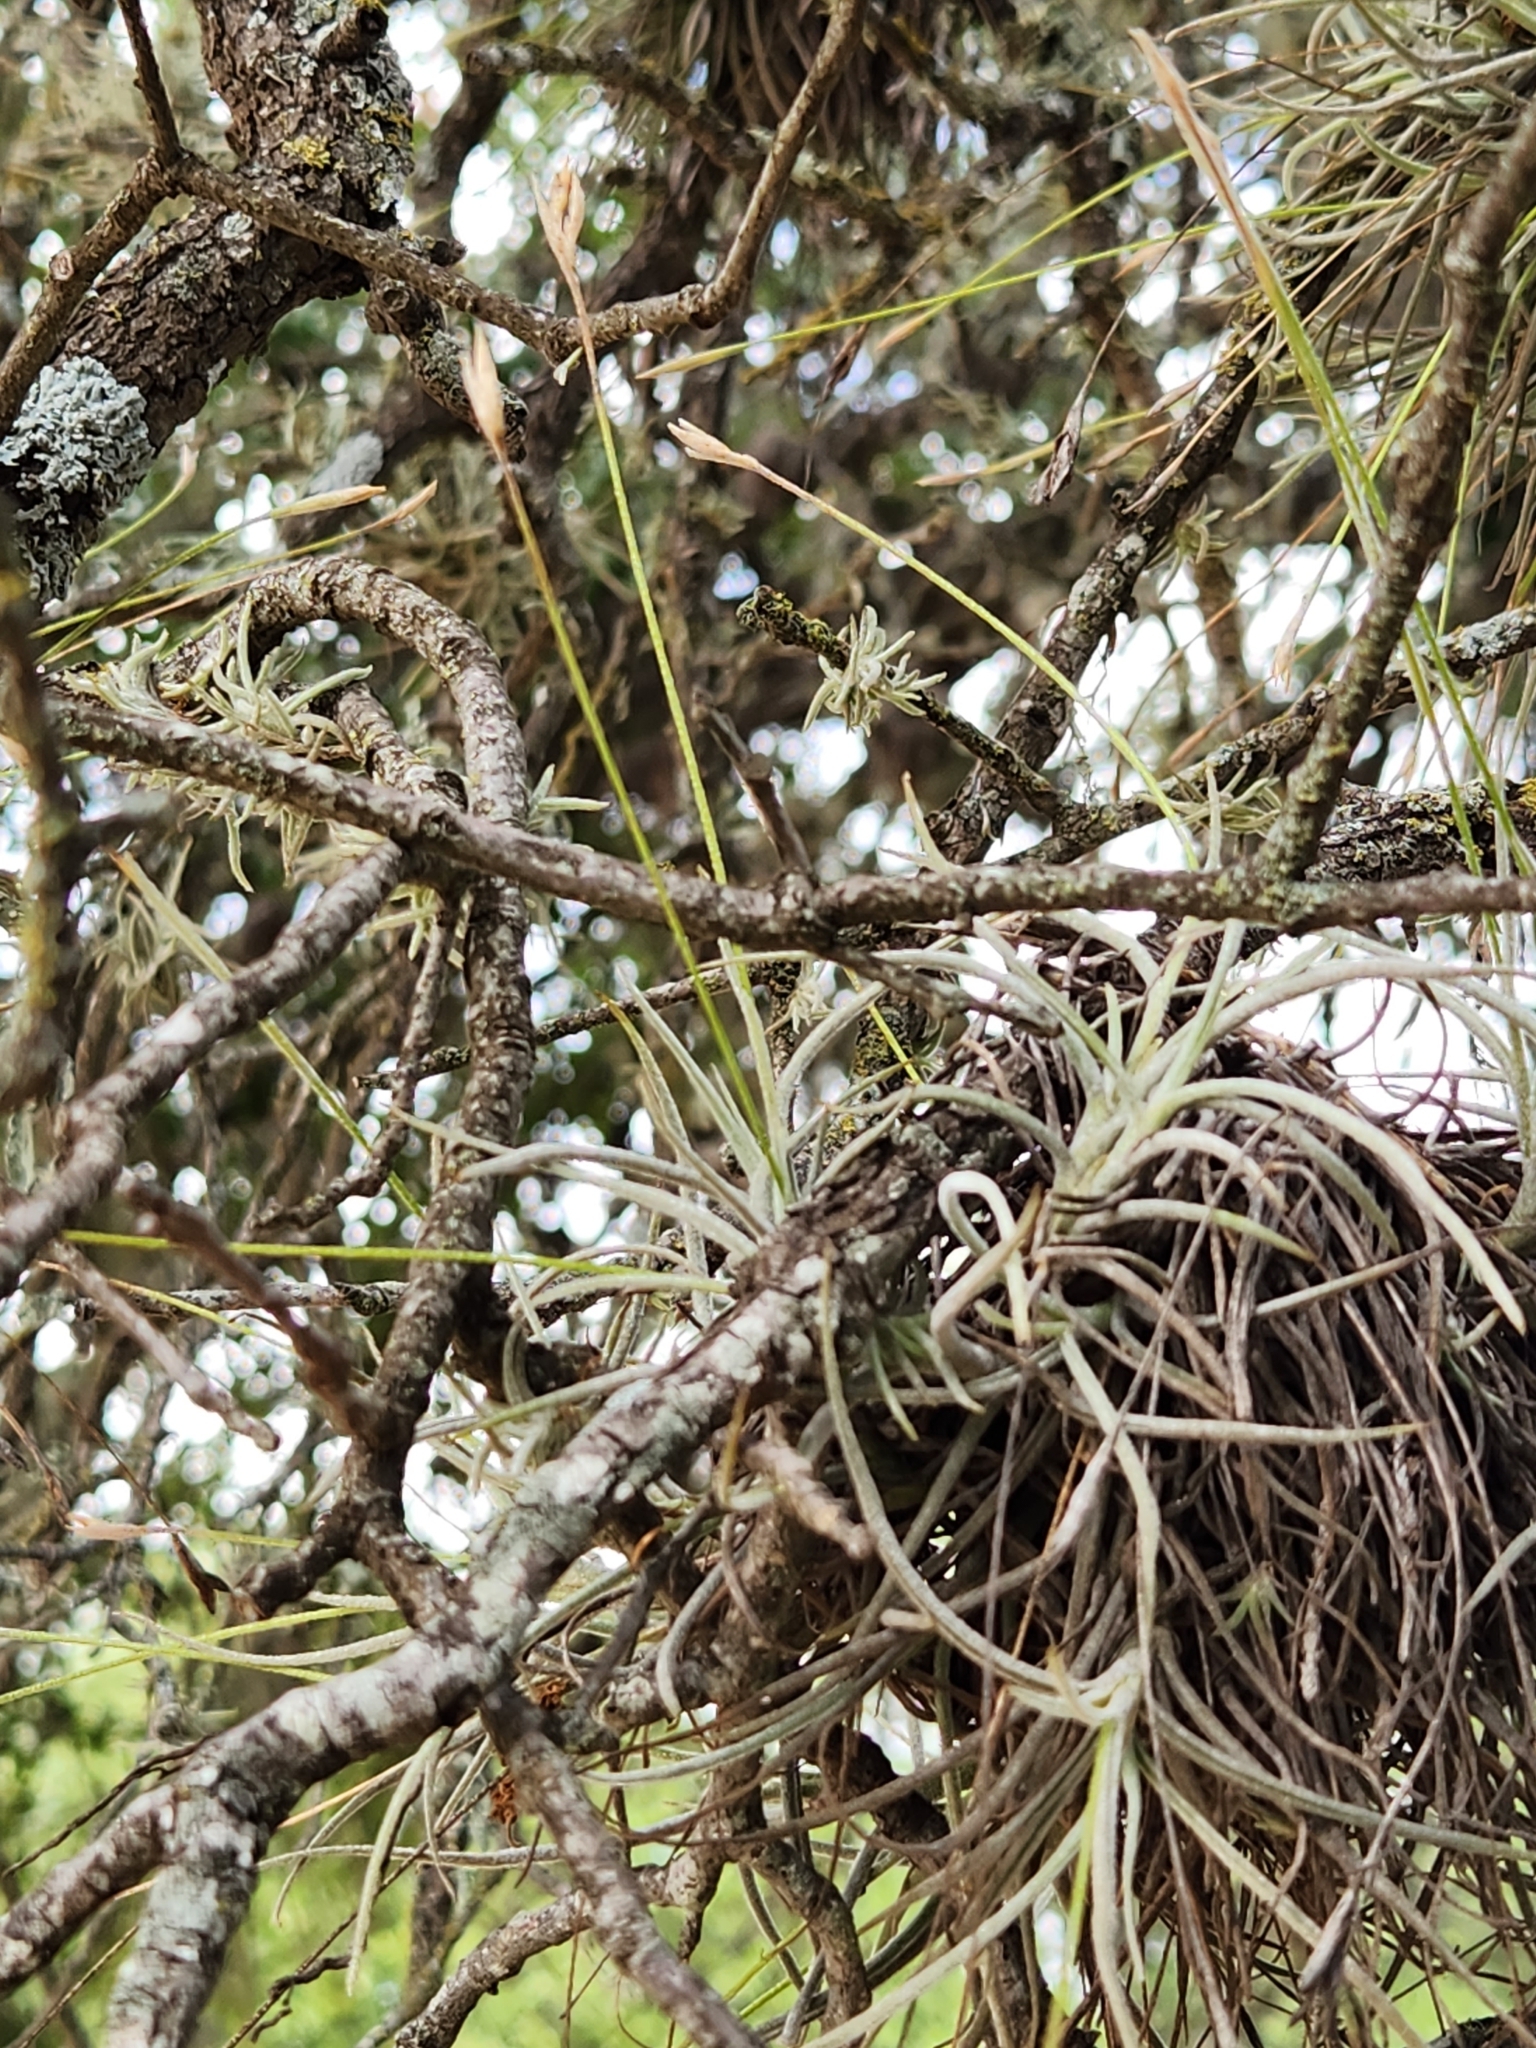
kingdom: Plantae
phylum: Tracheophyta
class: Liliopsida
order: Poales
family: Bromeliaceae
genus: Tillandsia
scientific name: Tillandsia recurvata
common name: Small ballmoss
